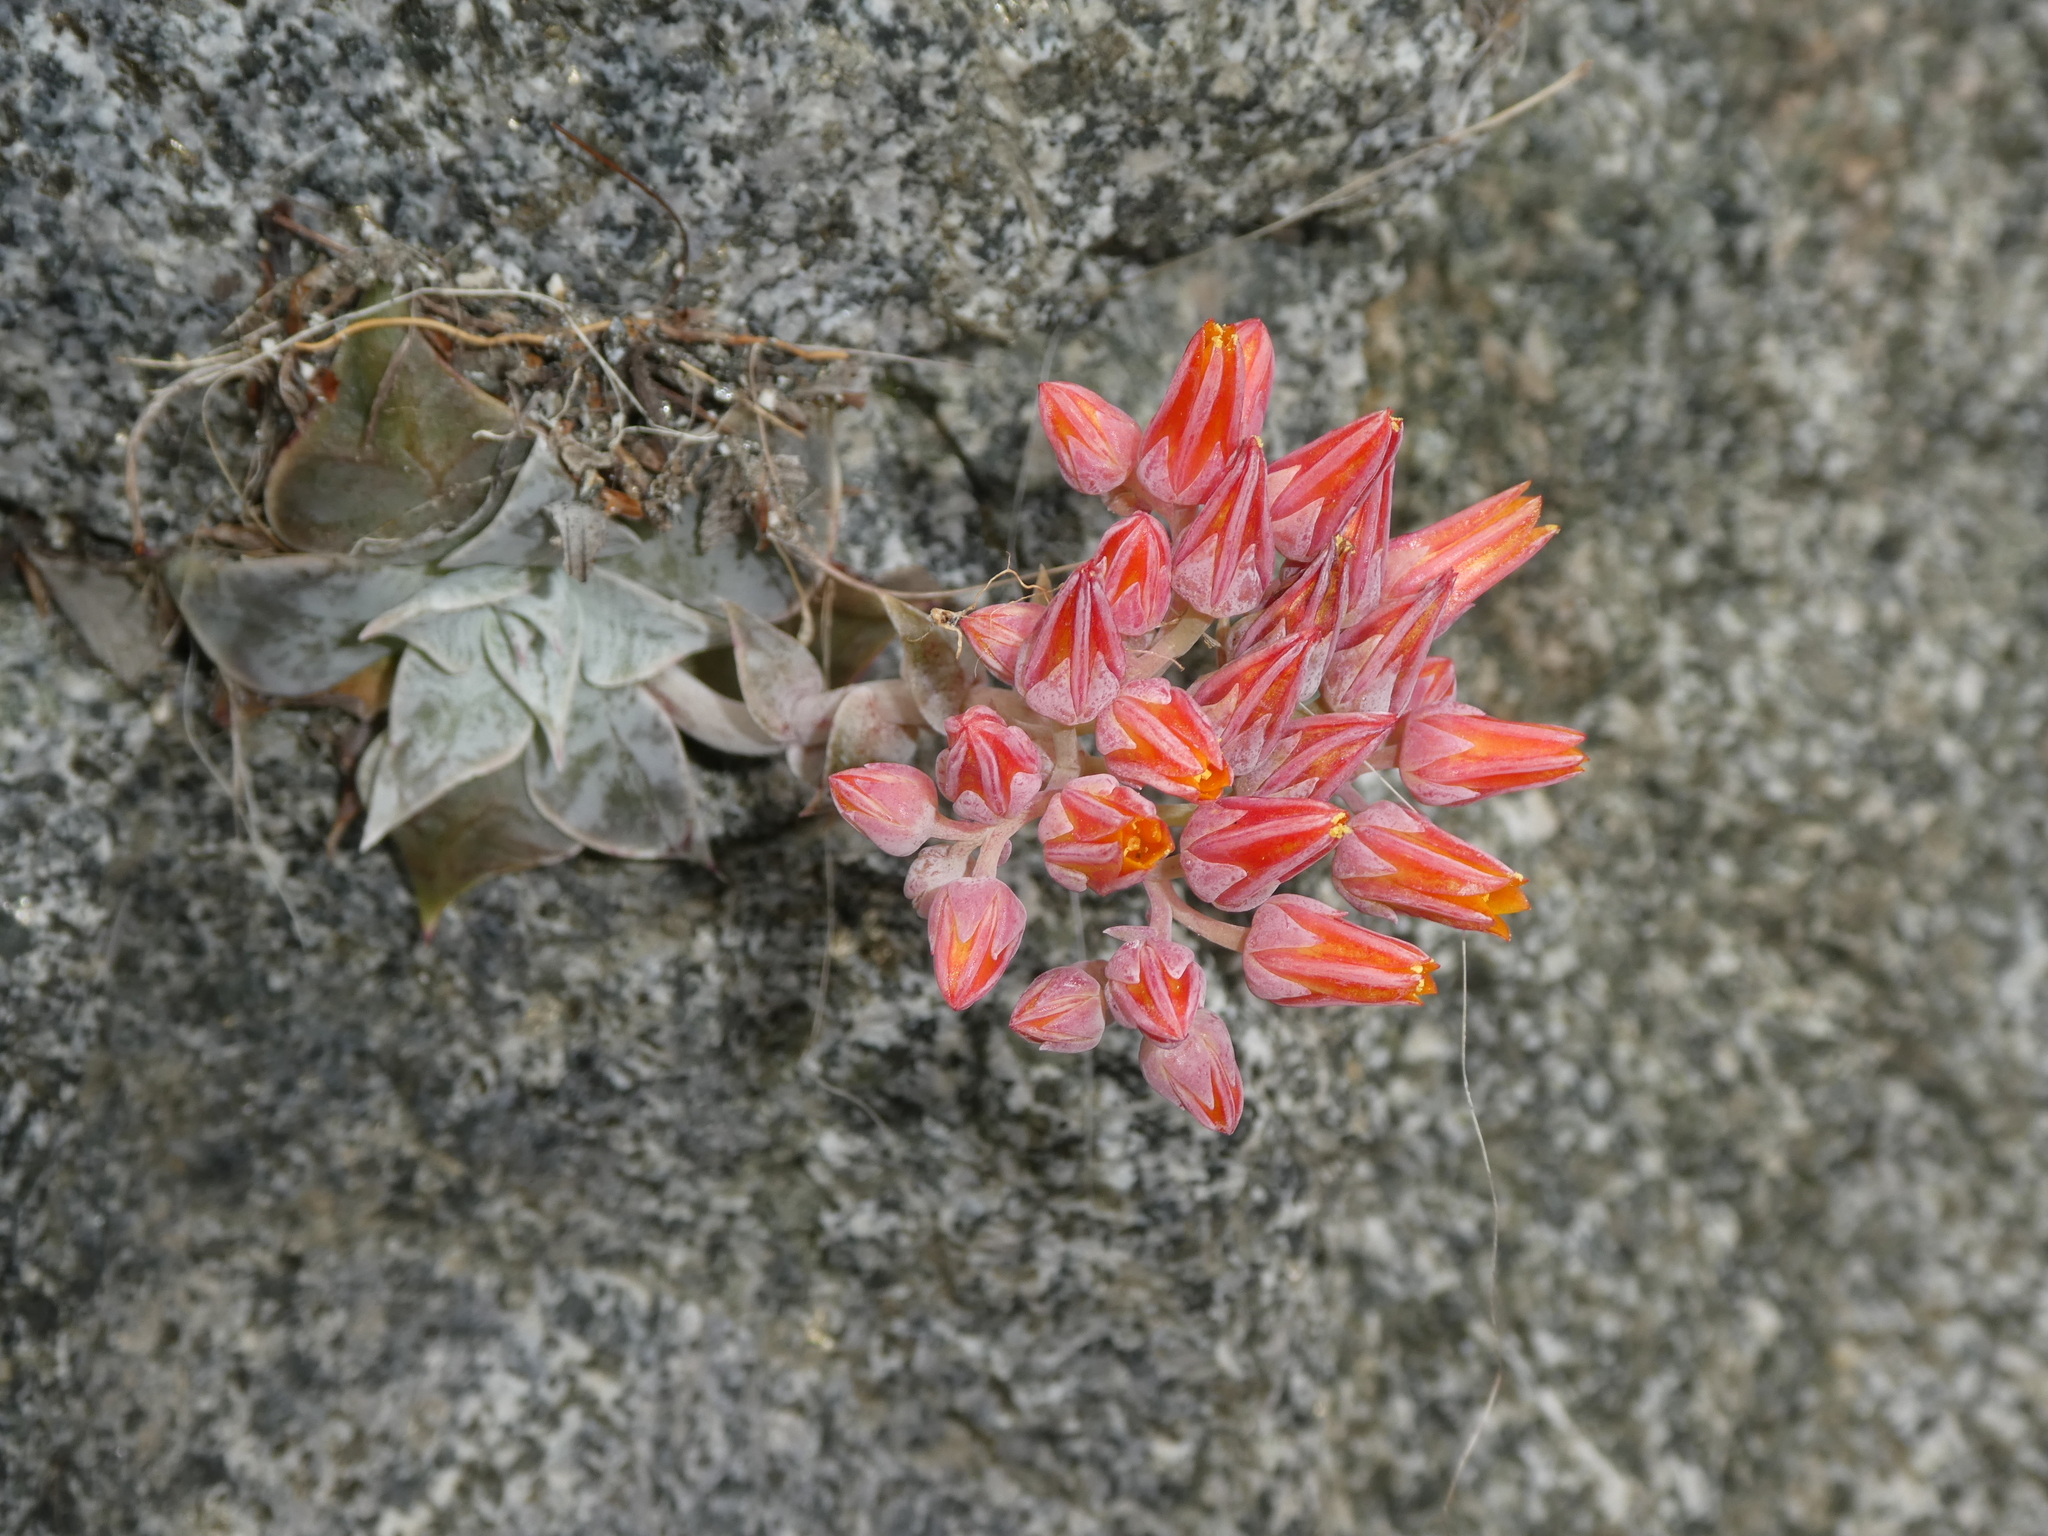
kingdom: Plantae
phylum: Tracheophyta
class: Magnoliopsida
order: Saxifragales
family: Crassulaceae
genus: Dudleya
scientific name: Dudleya cymosa
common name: Canyon dudleya
